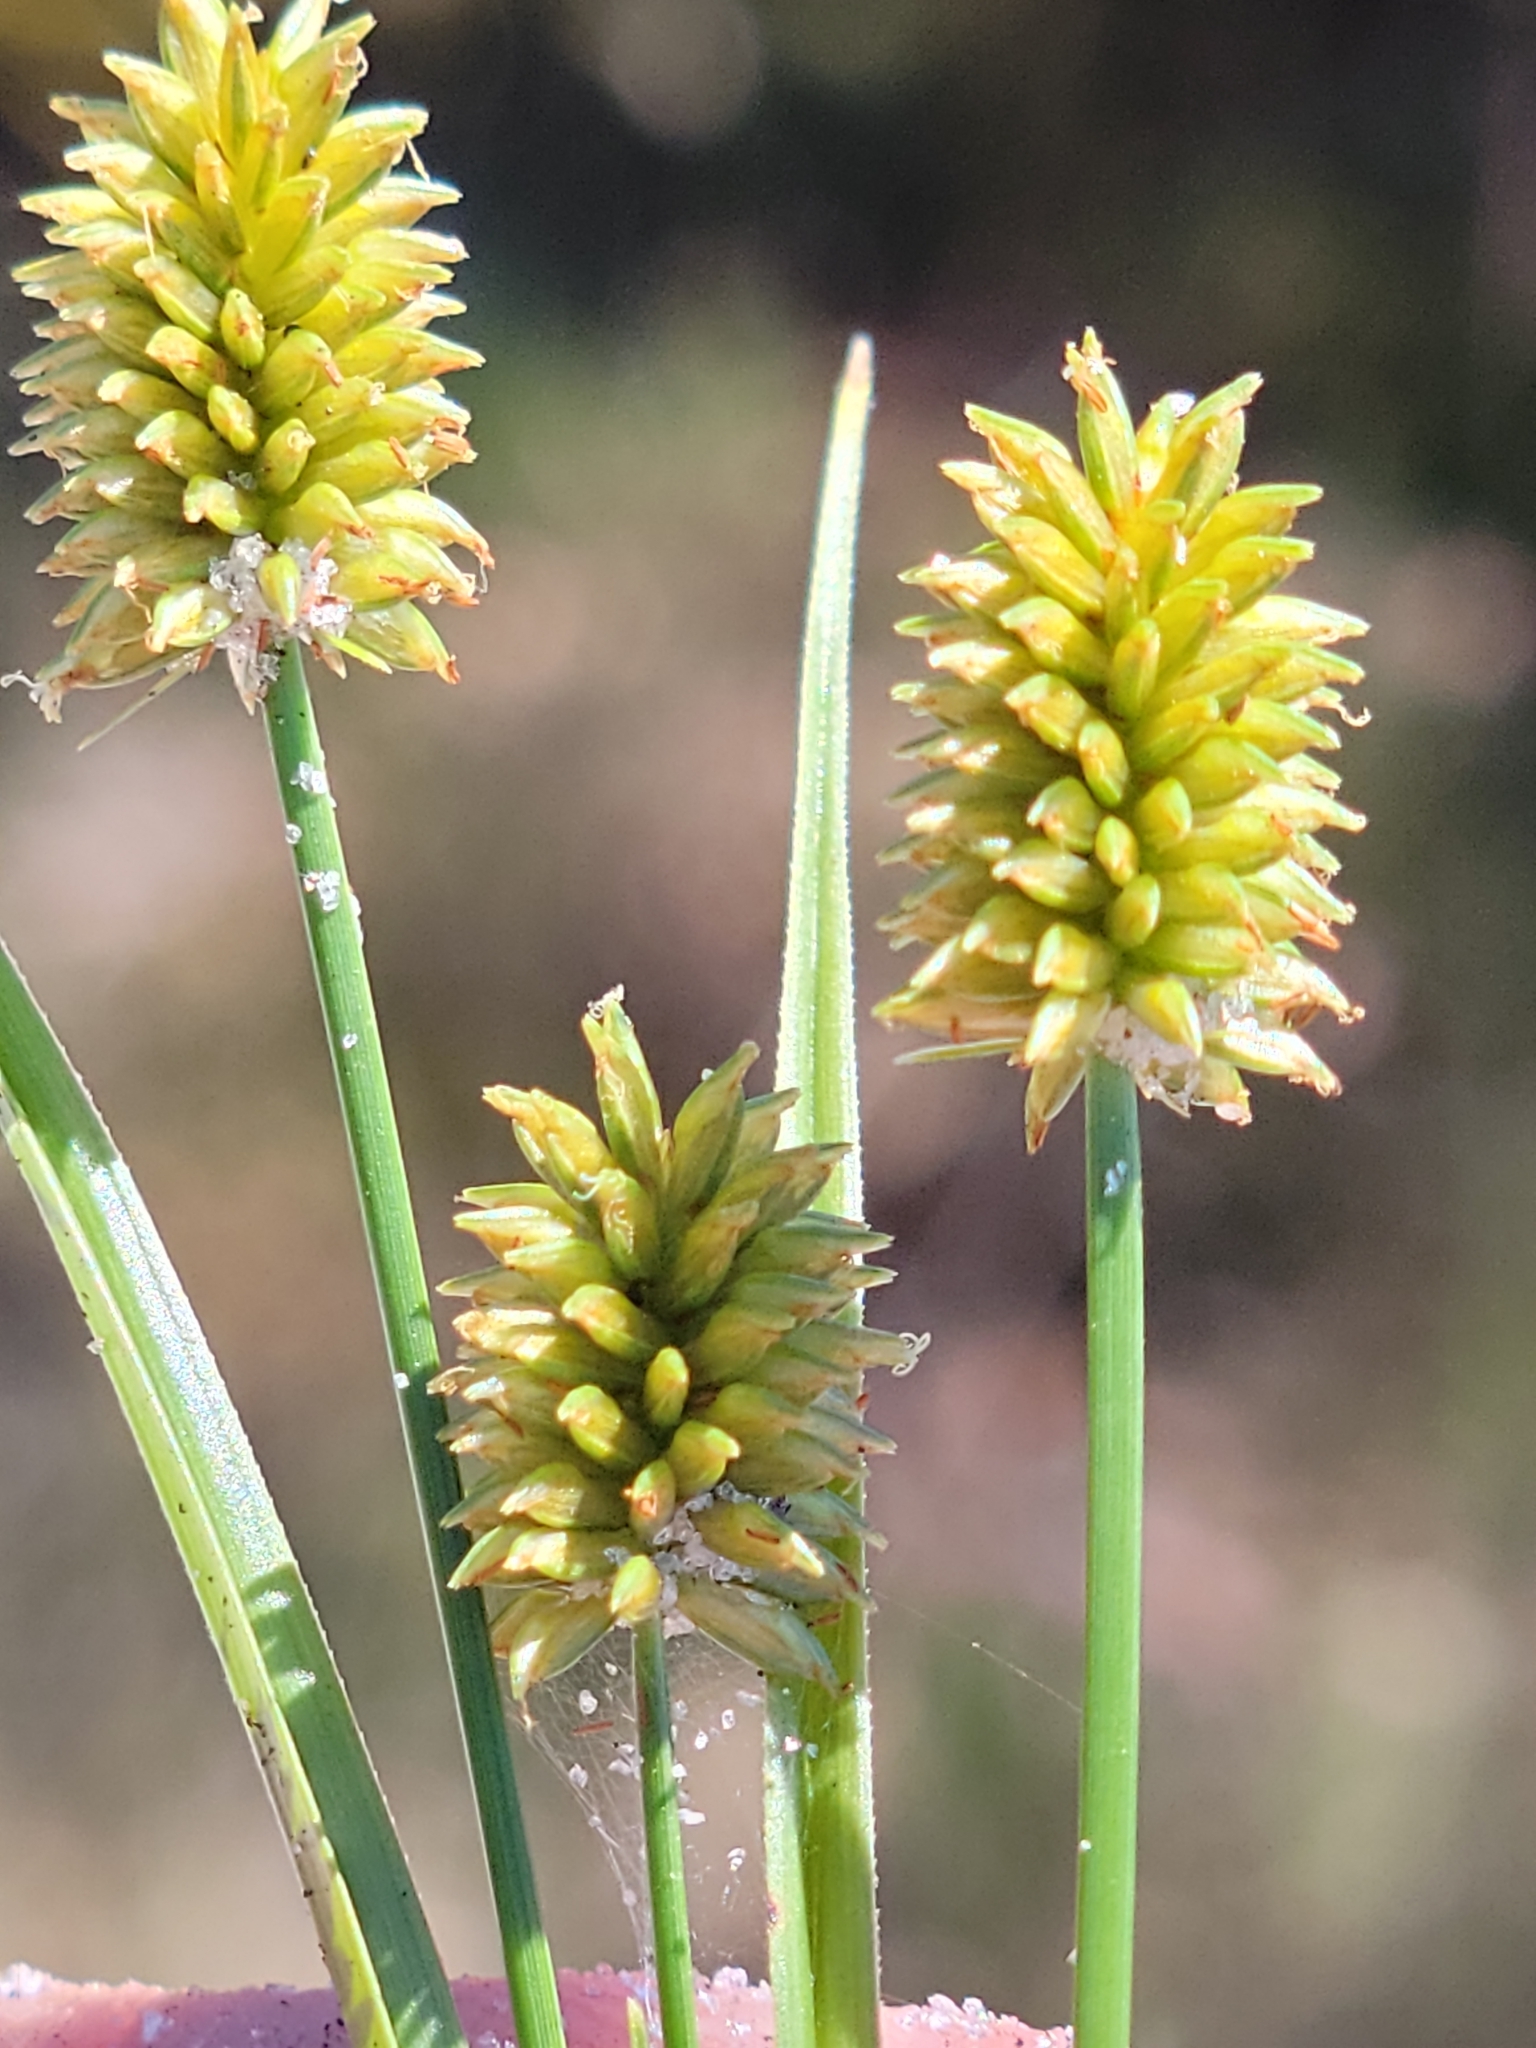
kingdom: Plantae
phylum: Tracheophyta
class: Liliopsida
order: Poales
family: Cyperaceae
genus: Cyperus
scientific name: Cyperus retrorsus
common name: Pinebarren flat sedge
